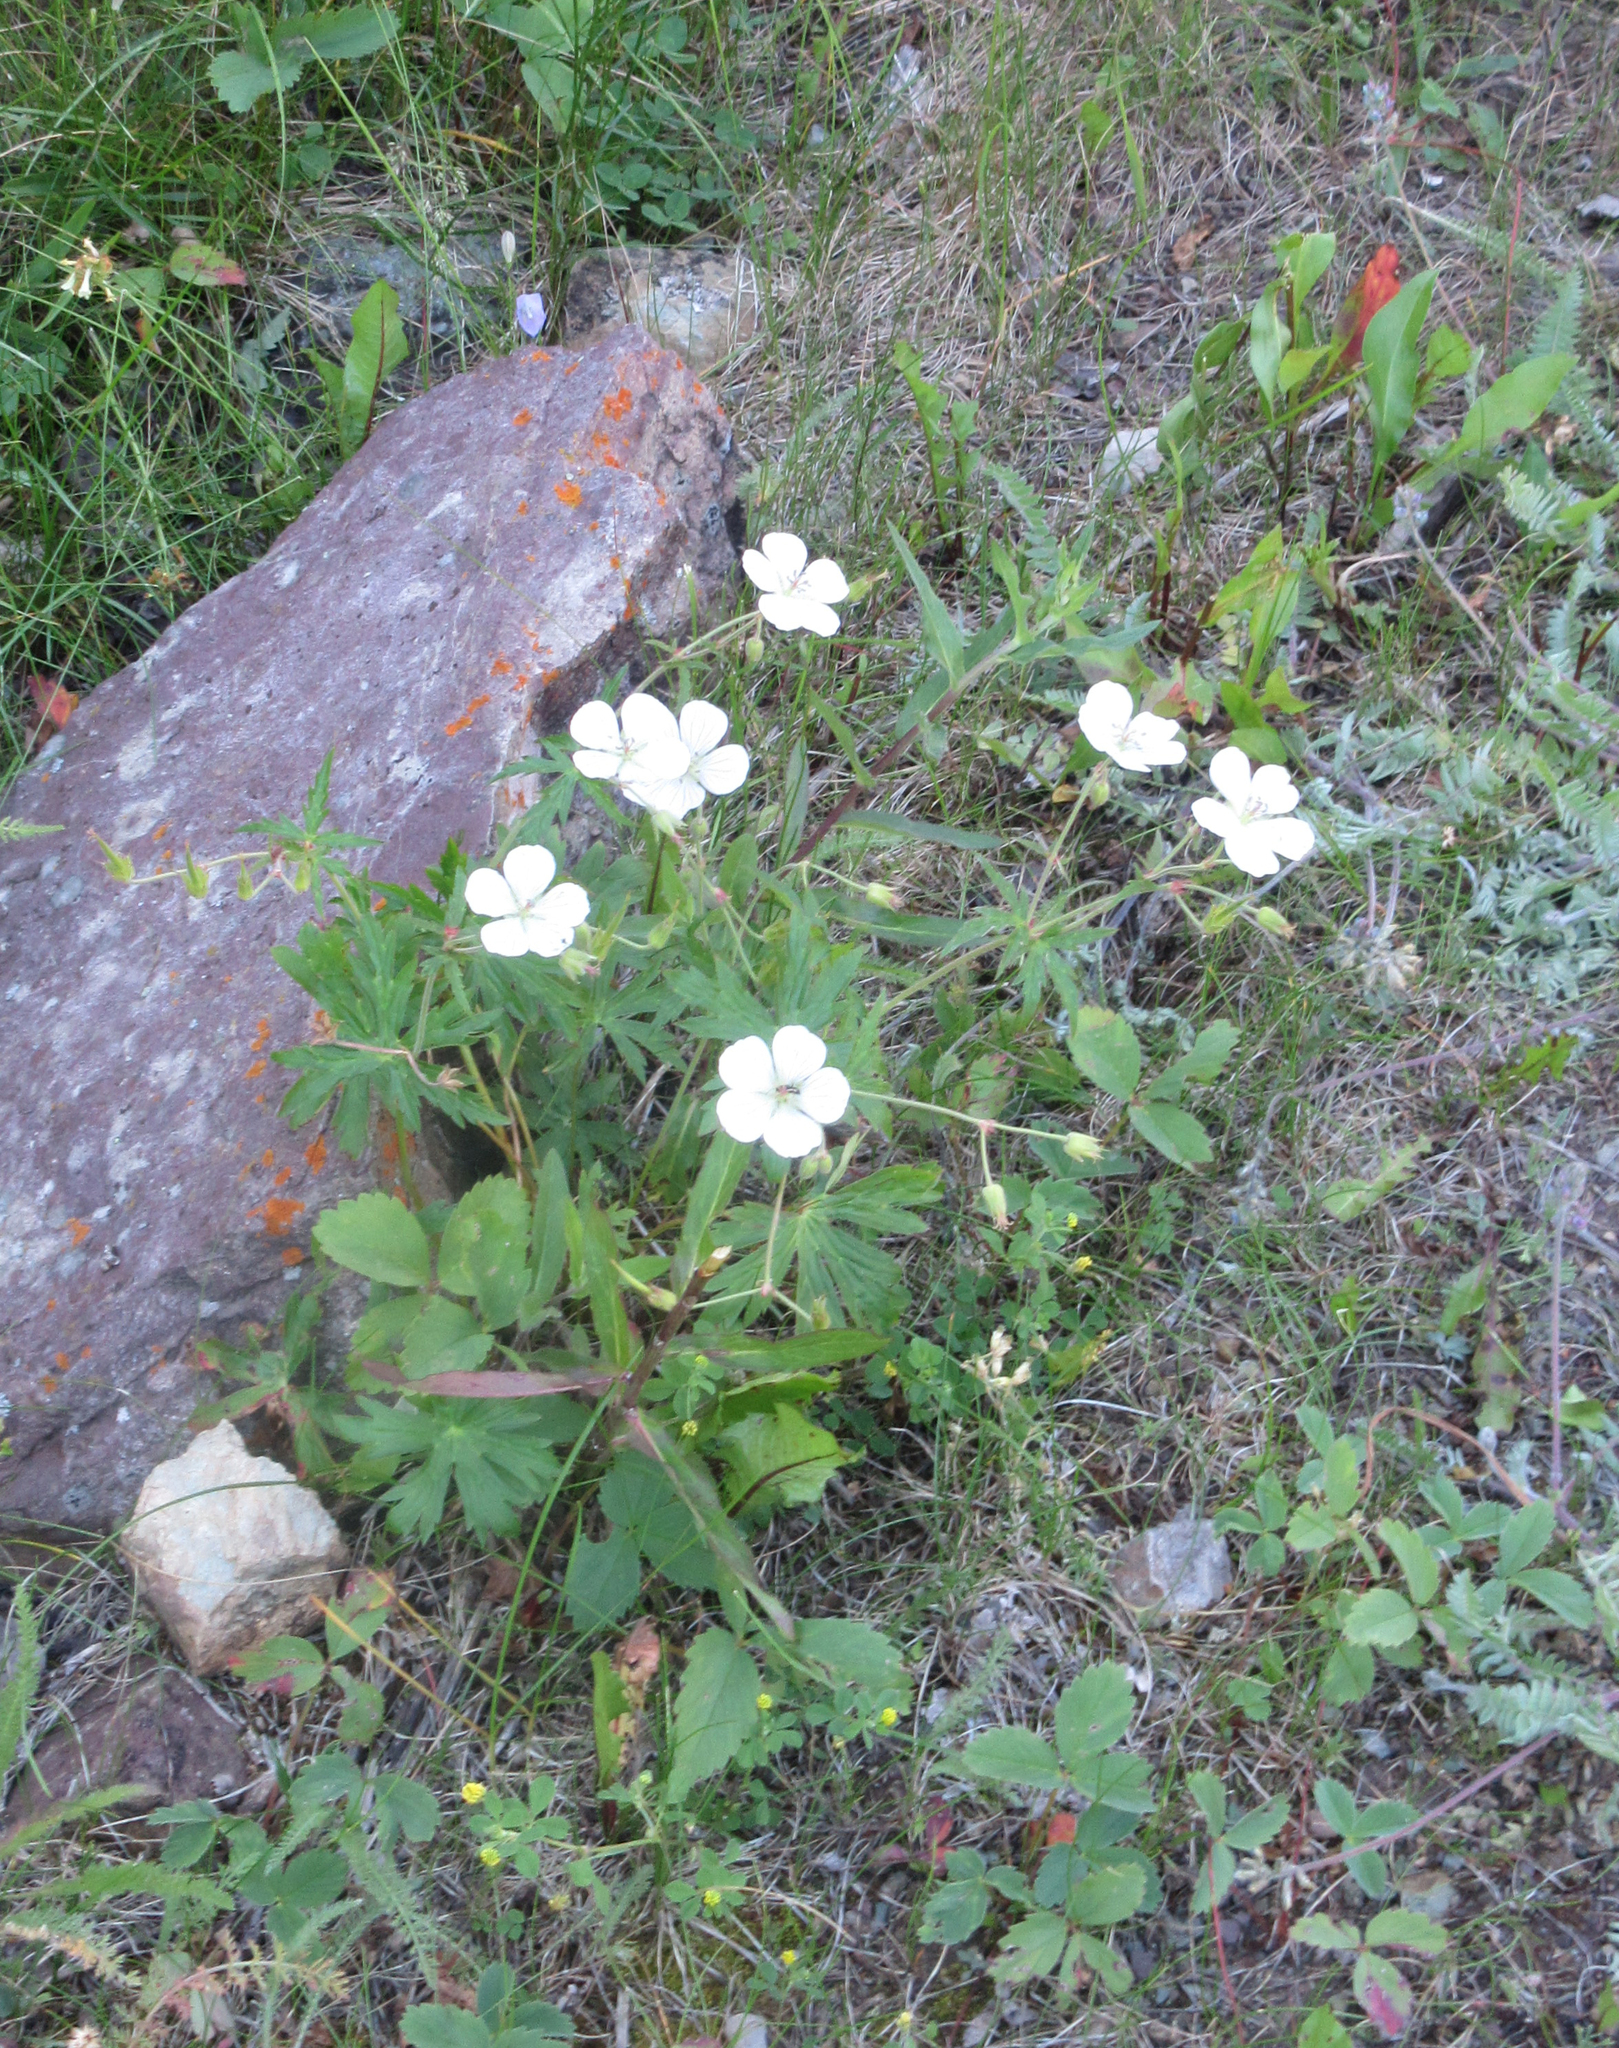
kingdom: Plantae
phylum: Tracheophyta
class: Magnoliopsida
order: Geraniales
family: Geraniaceae
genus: Geranium
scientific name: Geranium richardsonii
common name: Richardson's crane's-bill
